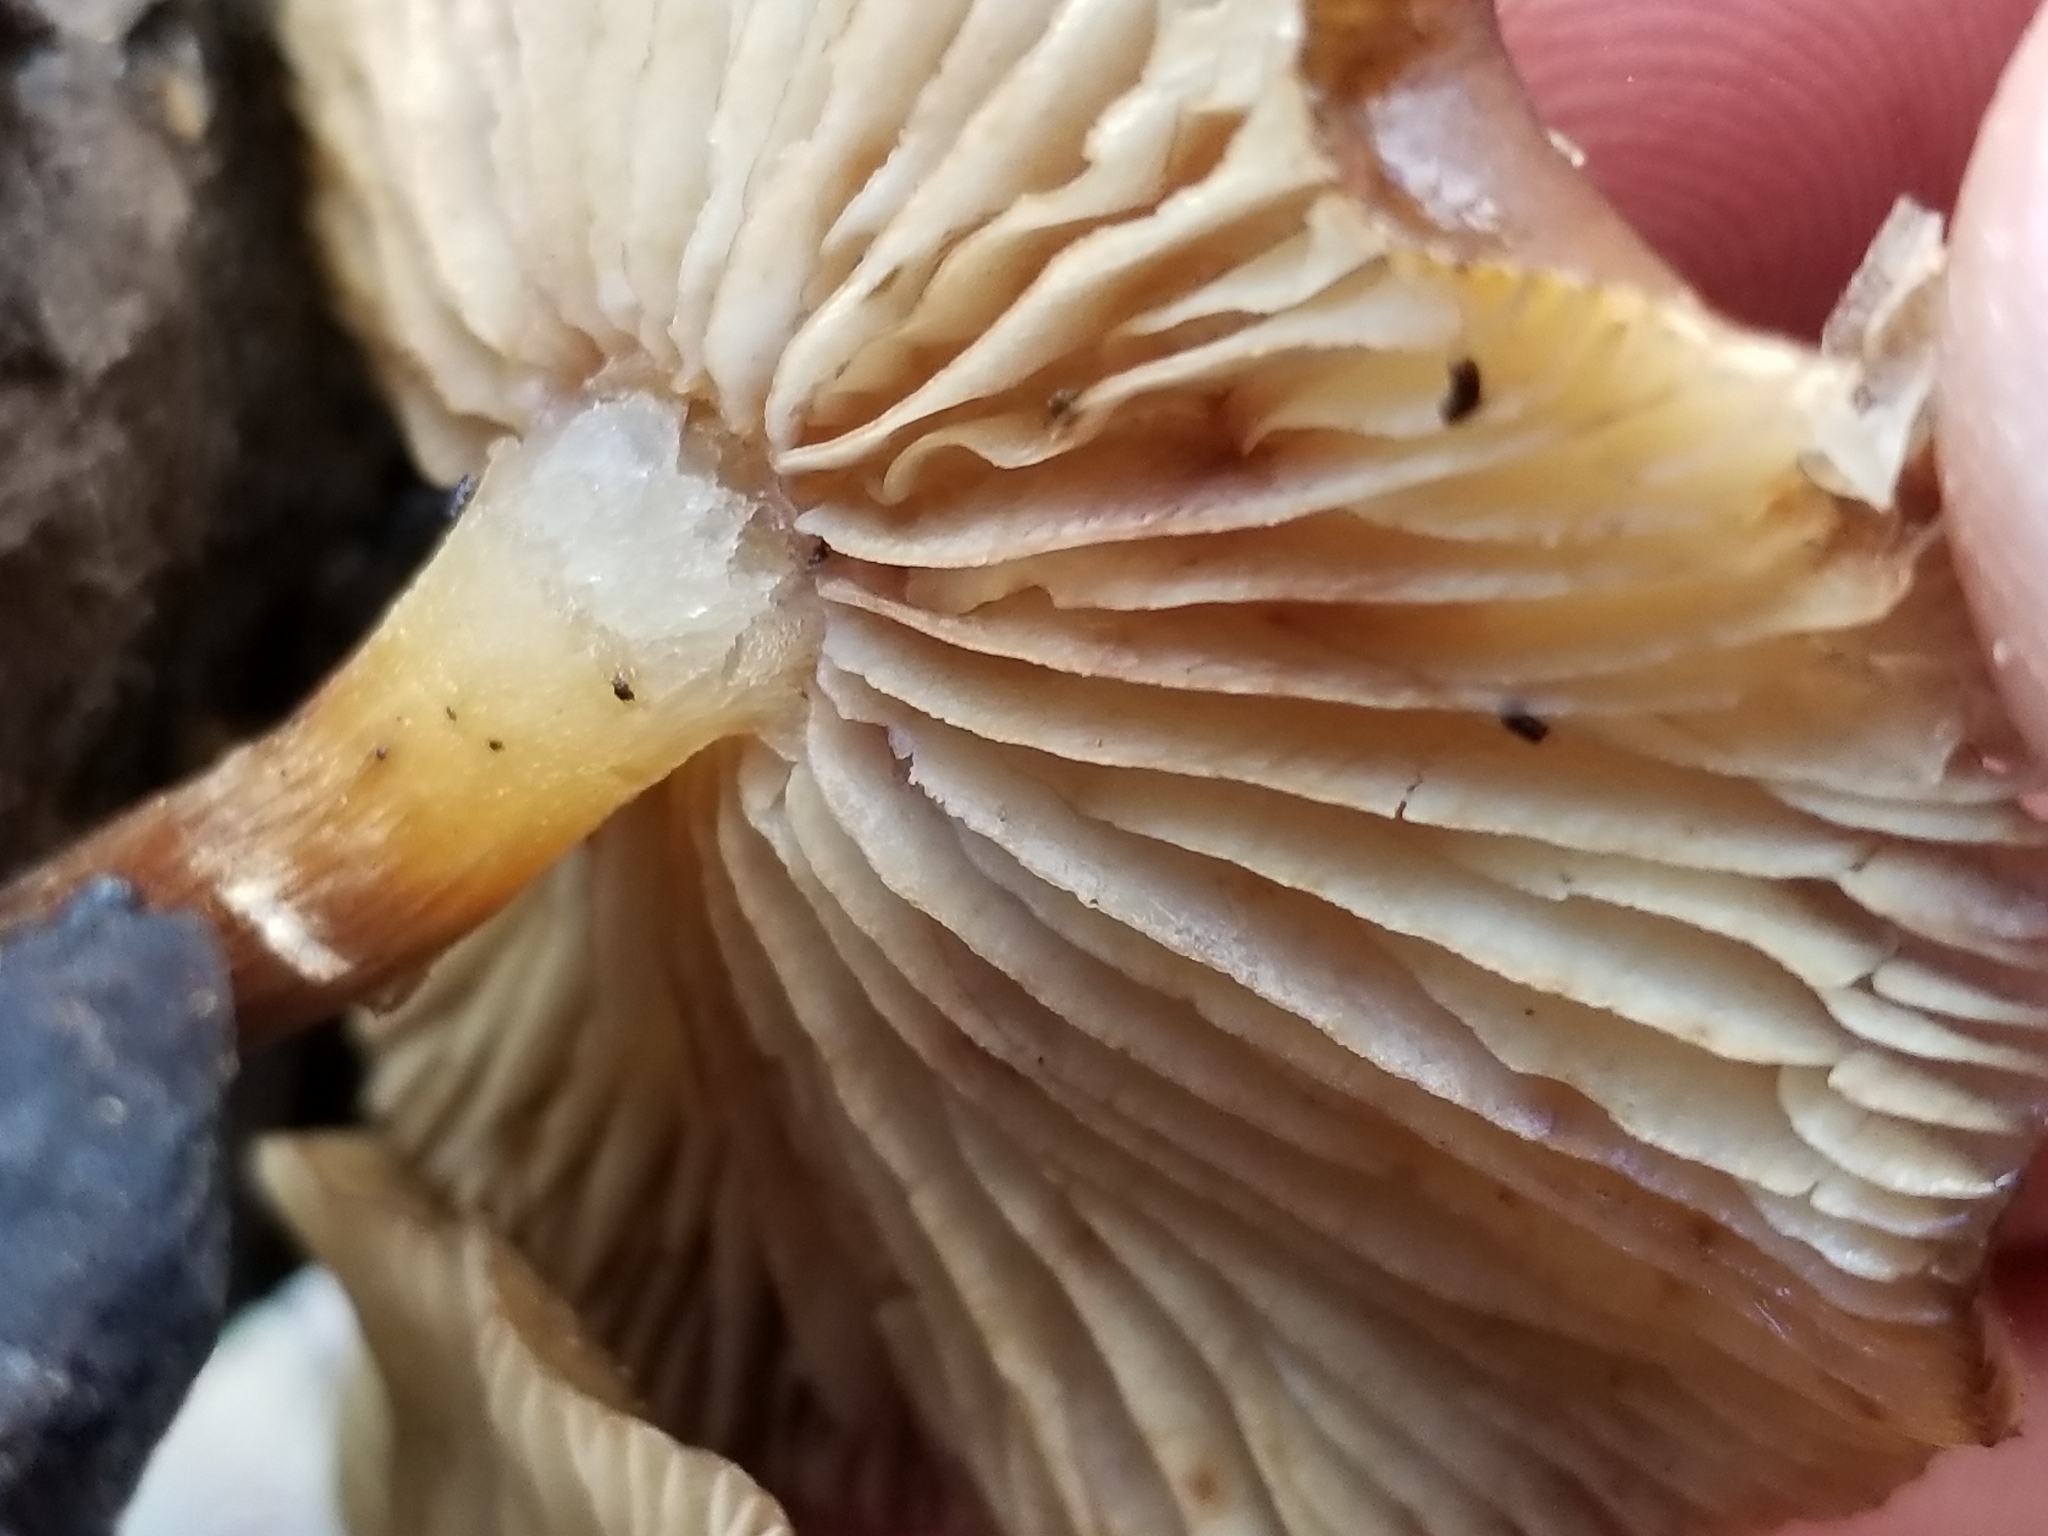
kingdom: Fungi
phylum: Basidiomycota
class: Agaricomycetes
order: Agaricales
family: Physalacriaceae
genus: Armillaria
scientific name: Armillaria novae-zelandiae
